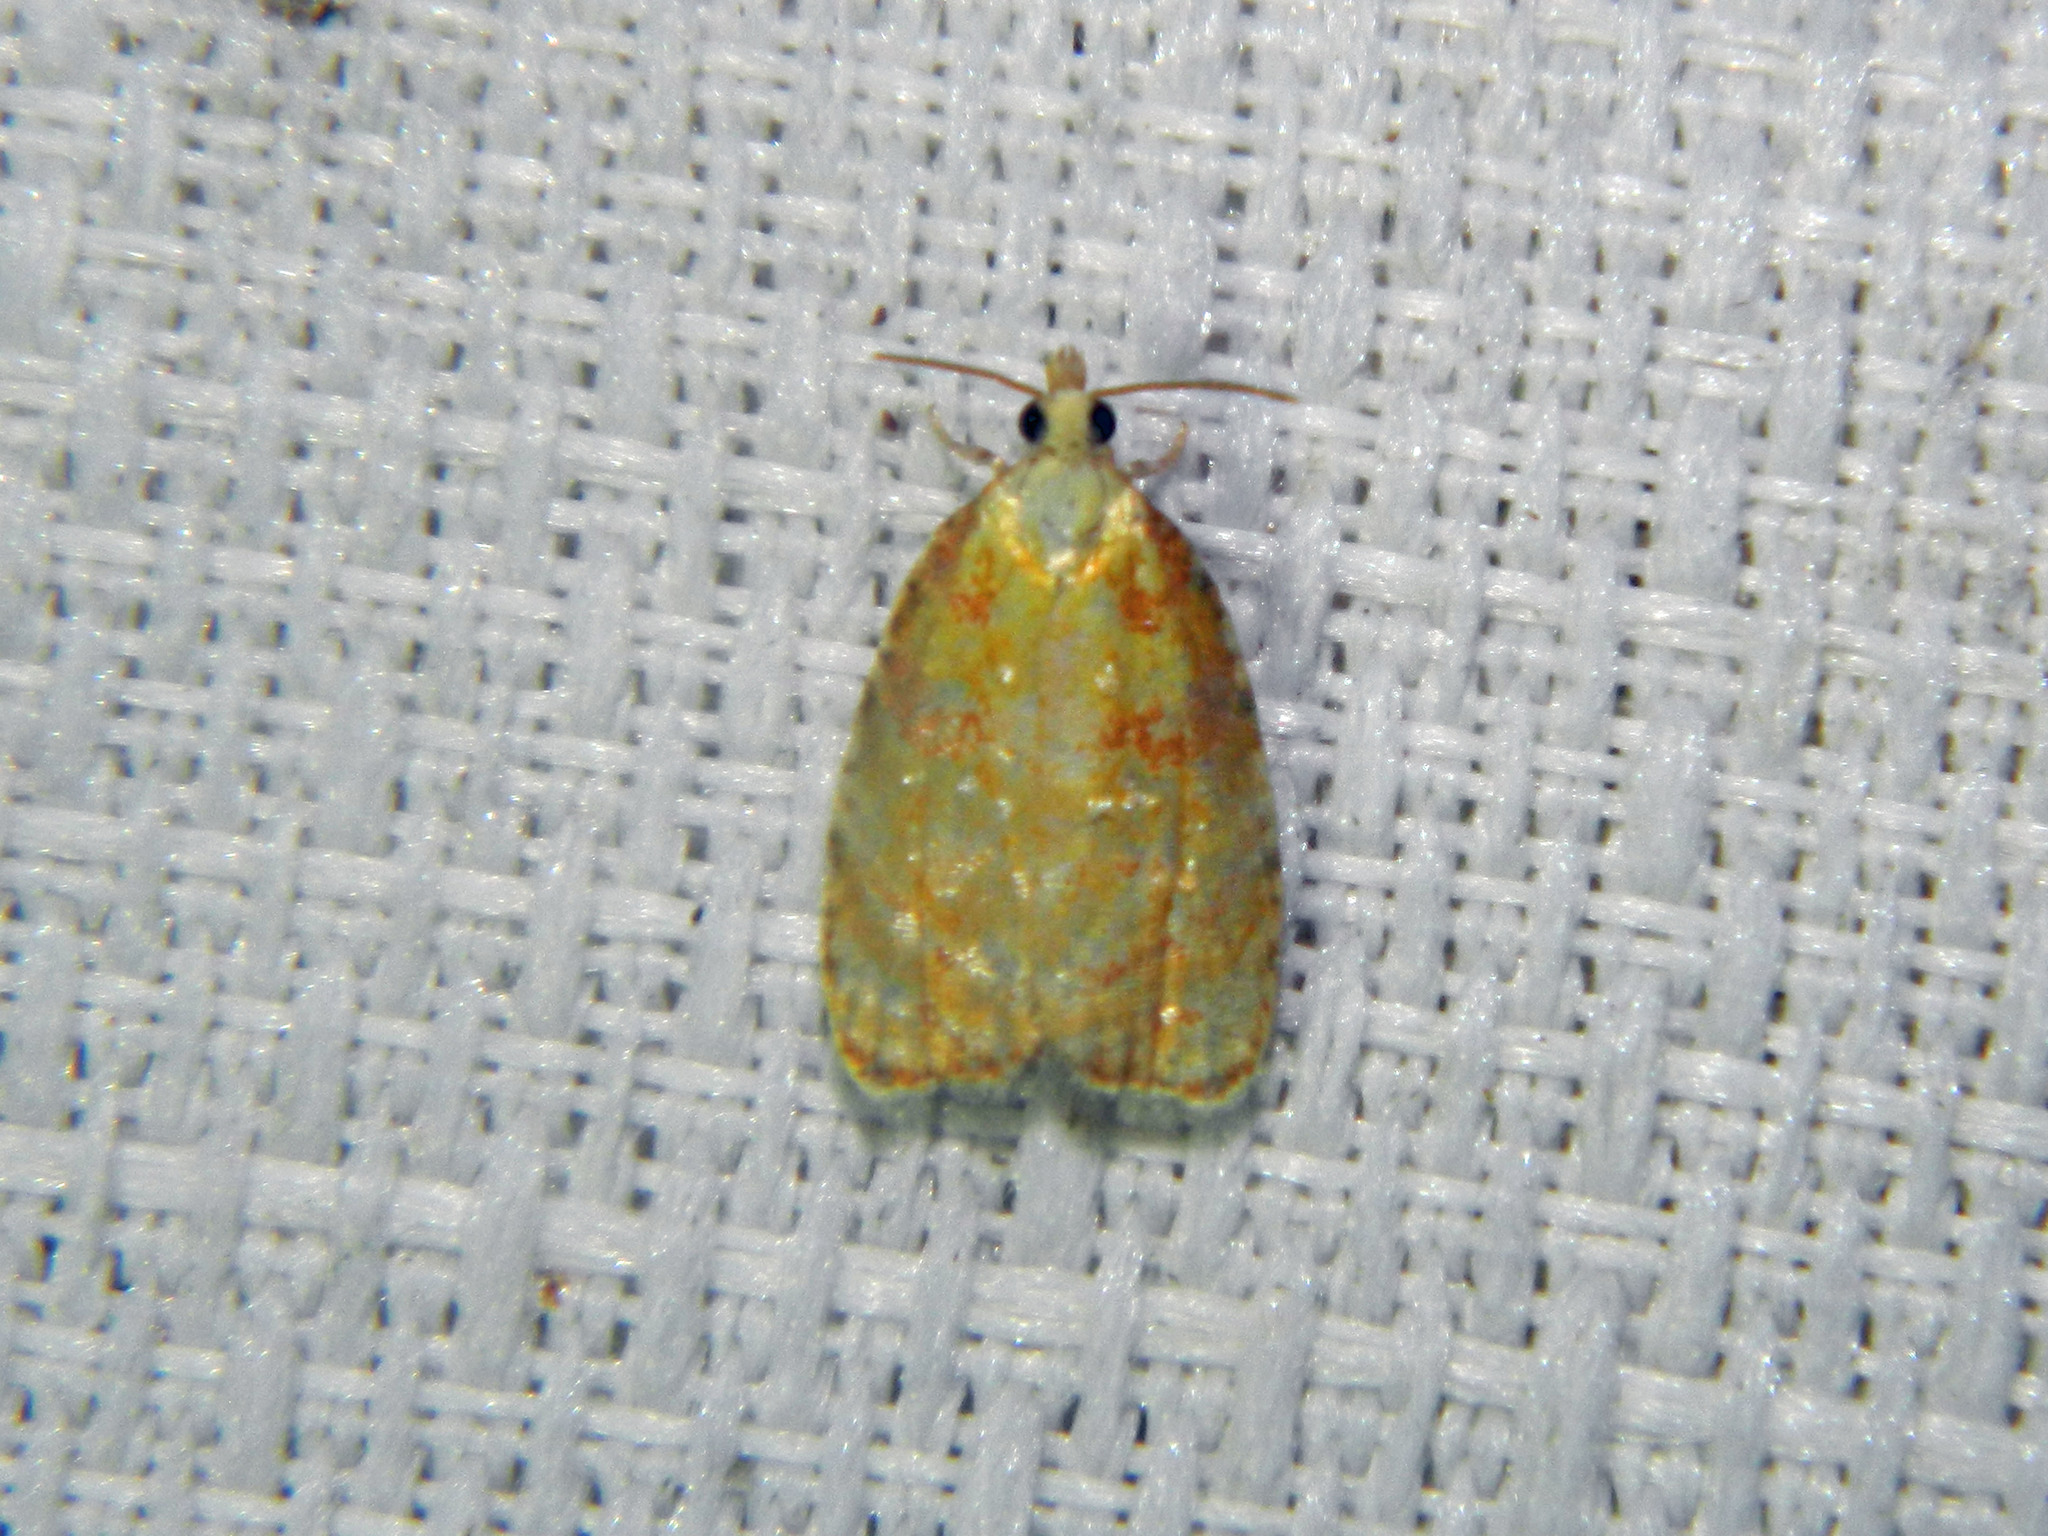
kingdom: Animalia
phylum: Arthropoda
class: Insecta
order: Lepidoptera
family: Tortricidae
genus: Acleris
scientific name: Acleris albicomana
